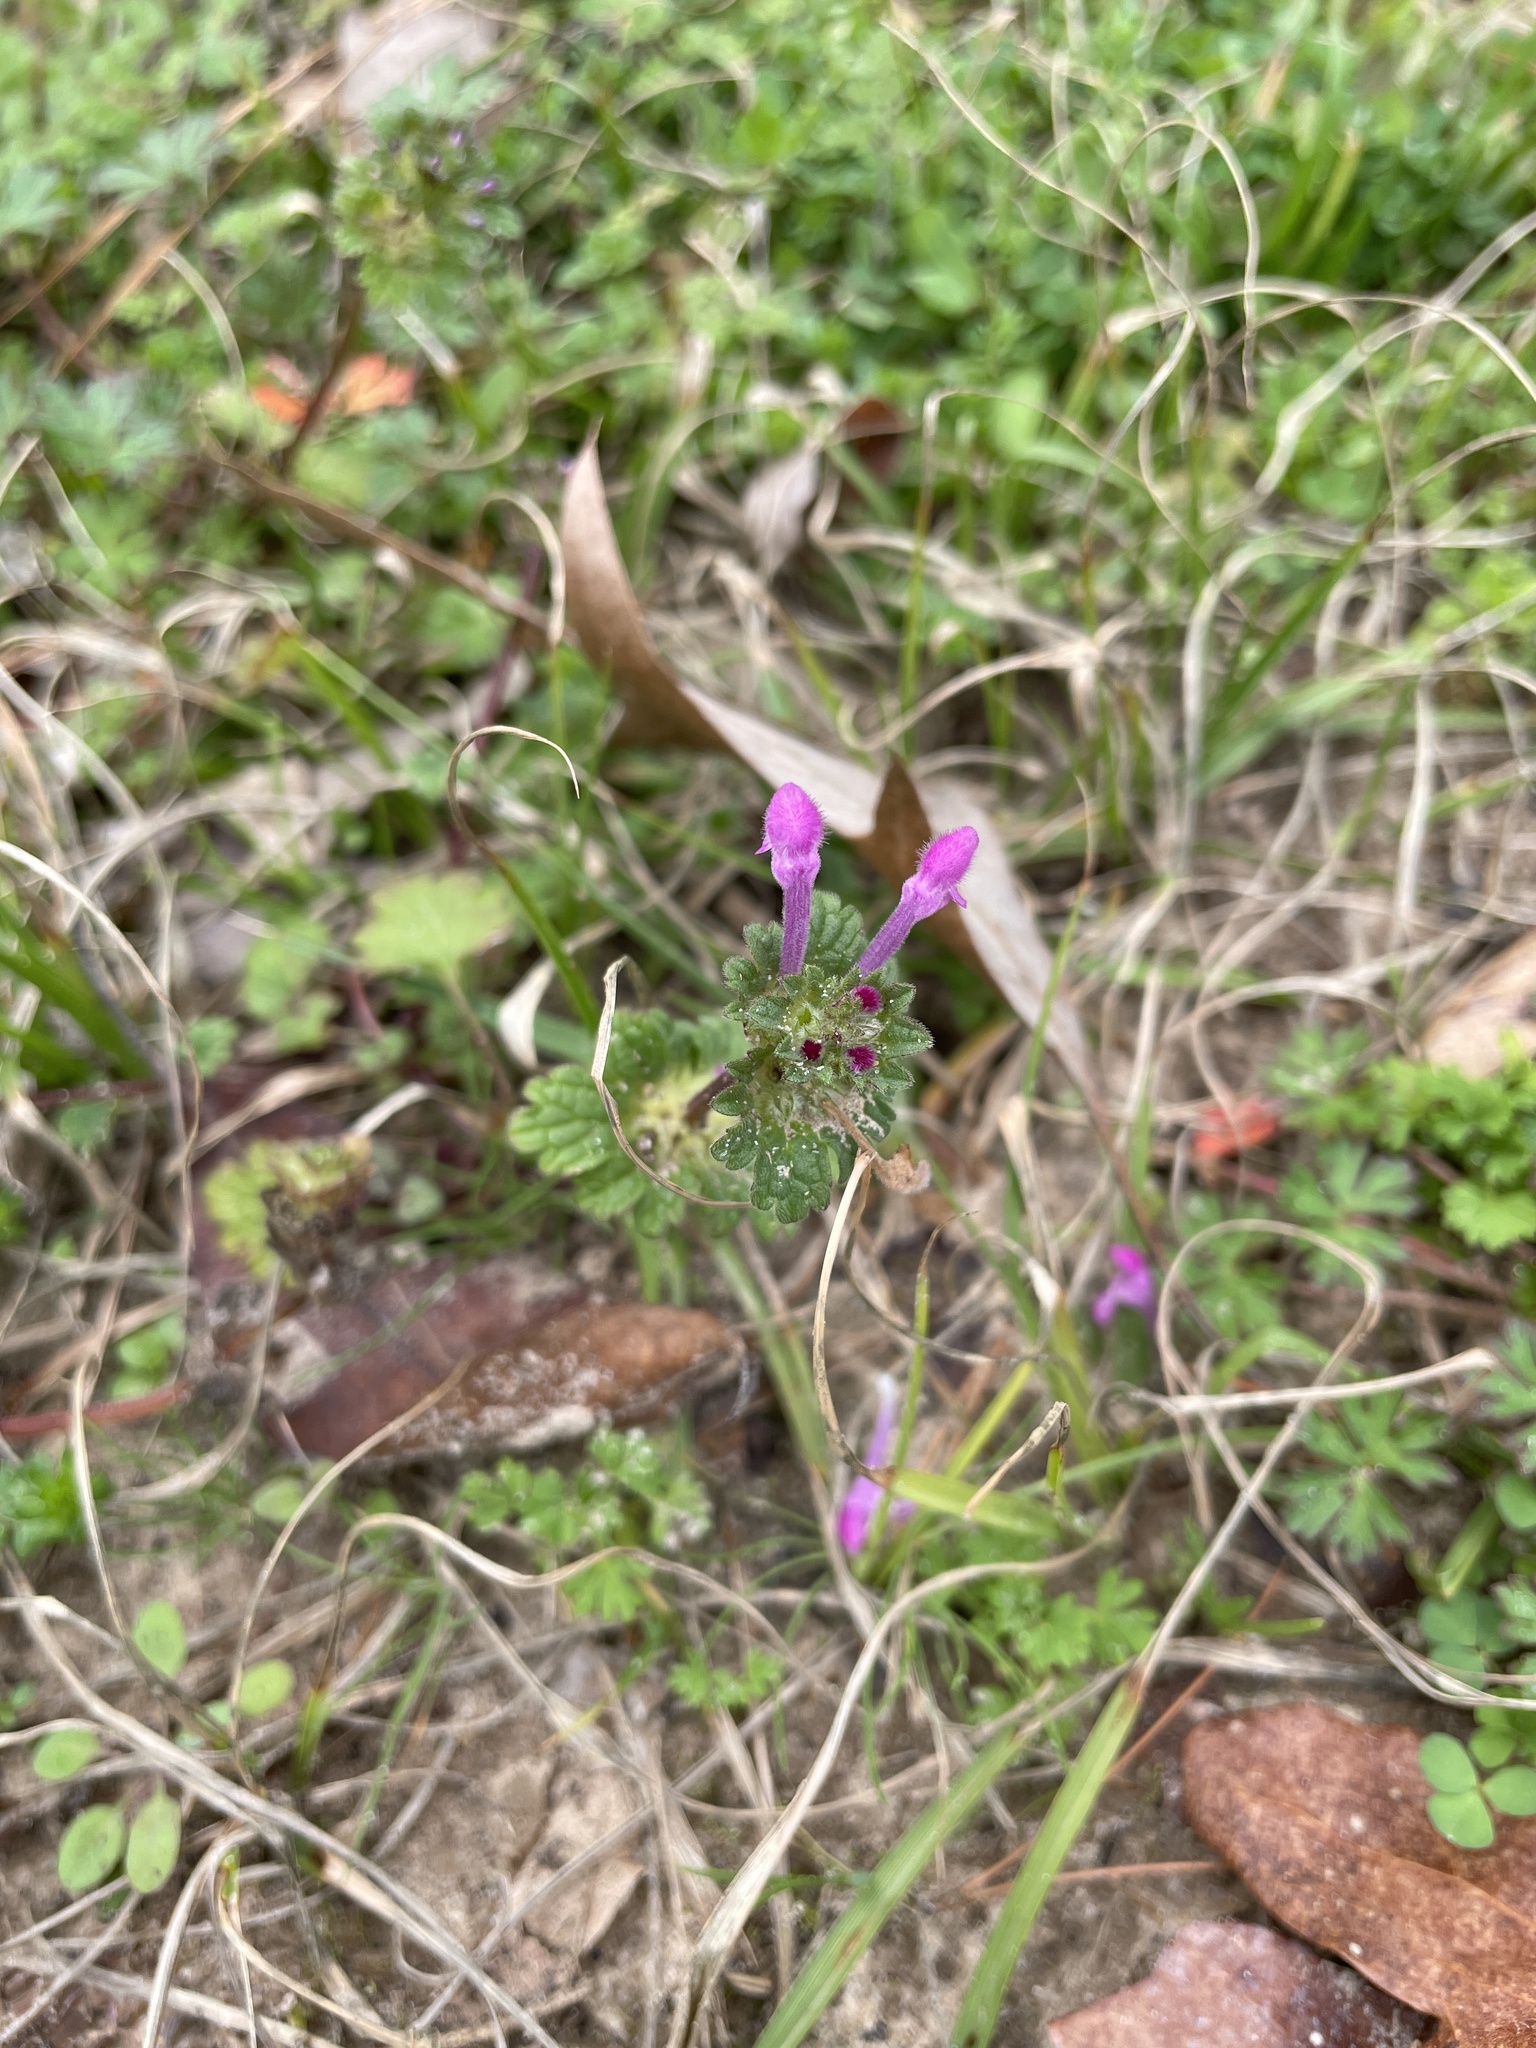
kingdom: Plantae
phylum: Tracheophyta
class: Magnoliopsida
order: Lamiales
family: Lamiaceae
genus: Lamium
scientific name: Lamium amplexicaule
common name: Henbit dead-nettle
